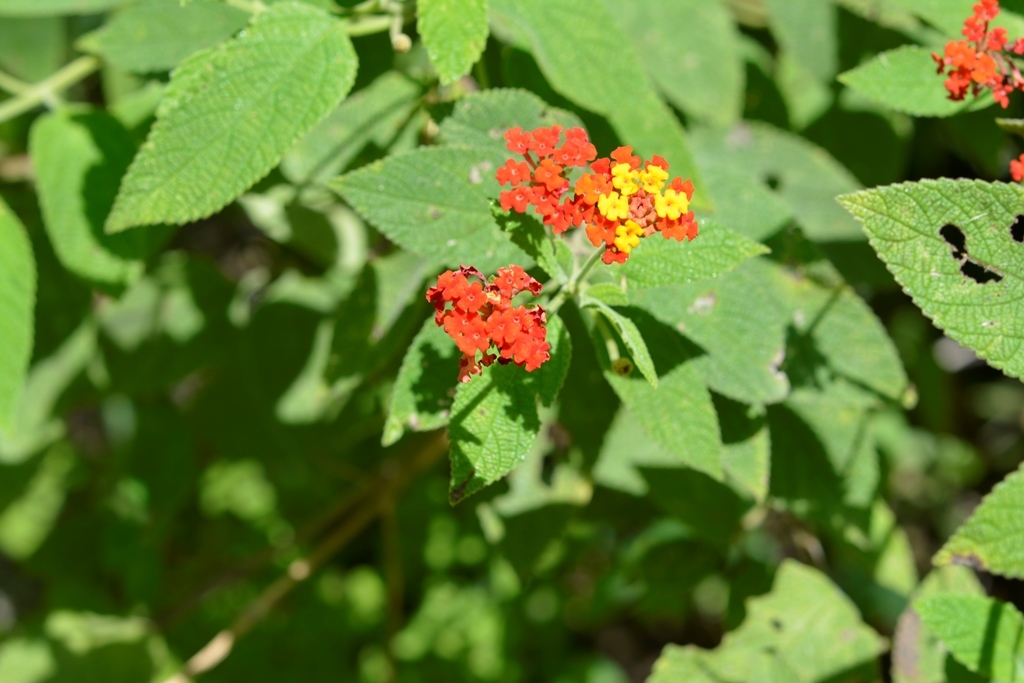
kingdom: Plantae
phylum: Tracheophyta
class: Magnoliopsida
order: Lamiales
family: Verbenaceae
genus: Lantana
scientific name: Lantana camara
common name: Lantana
